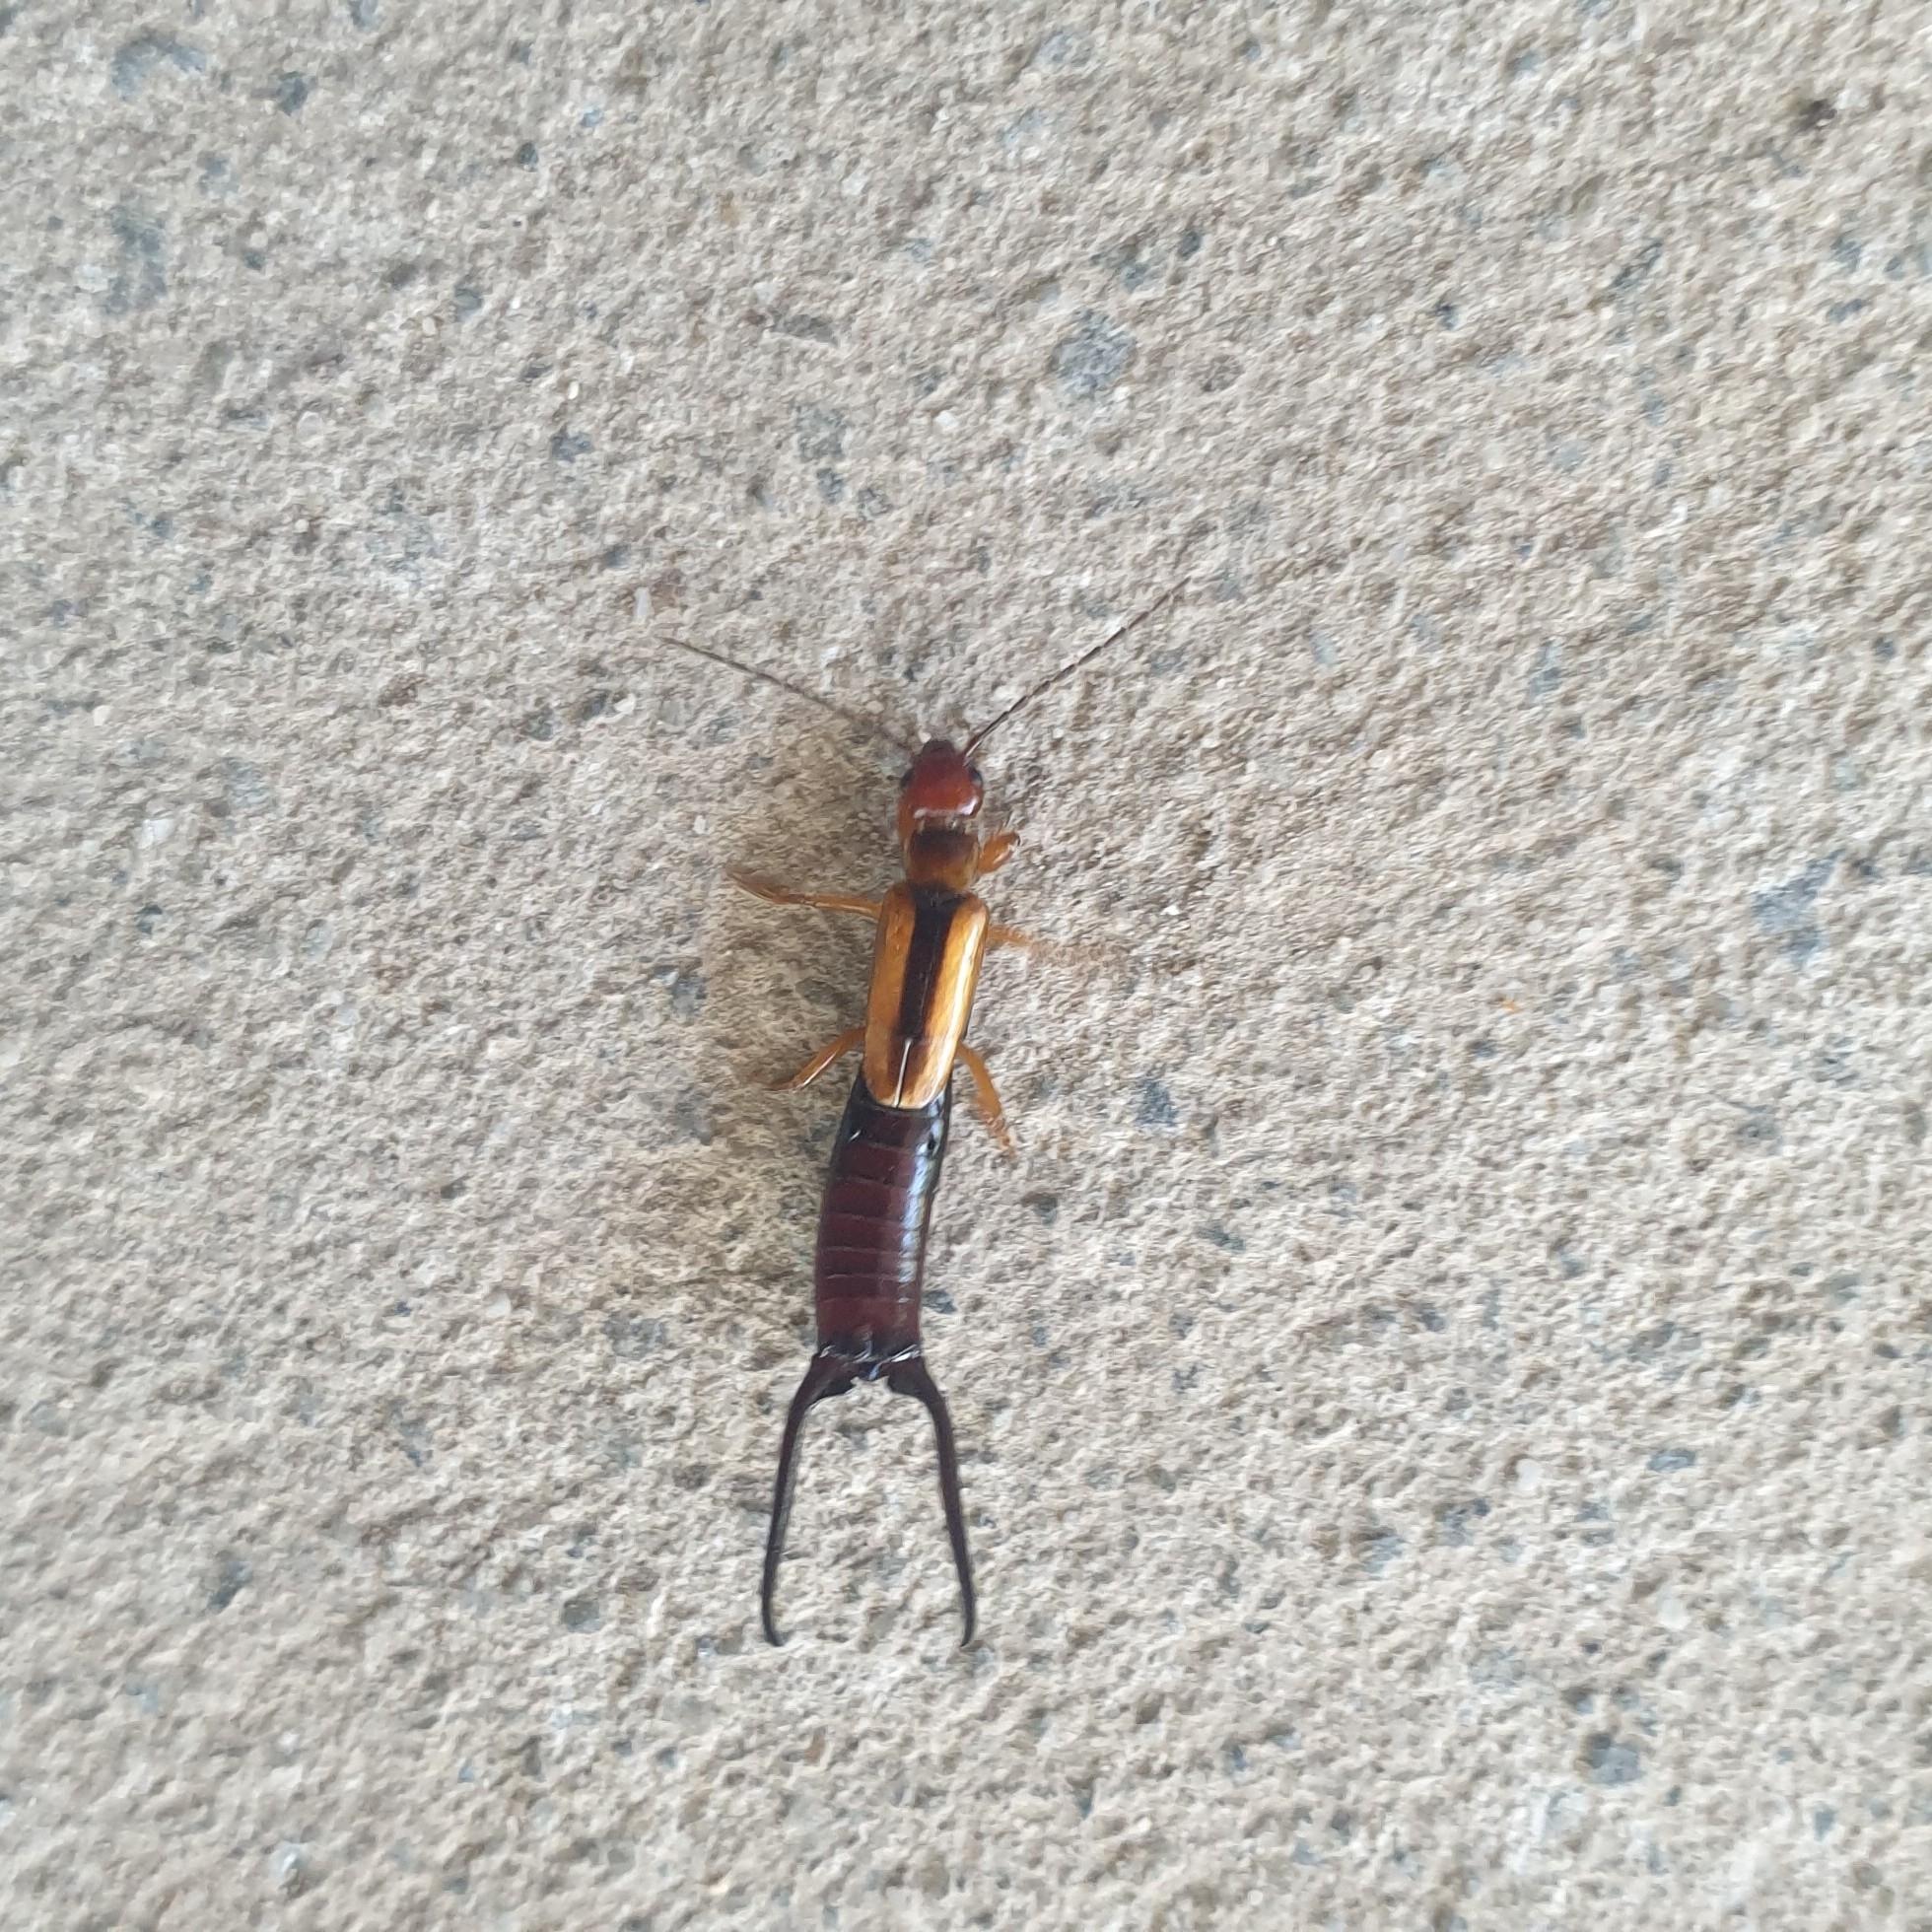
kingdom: Animalia
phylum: Arthropoda
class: Insecta
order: Dermaptera
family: Forficulidae
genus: Elaunon
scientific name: Elaunon bipartitus
